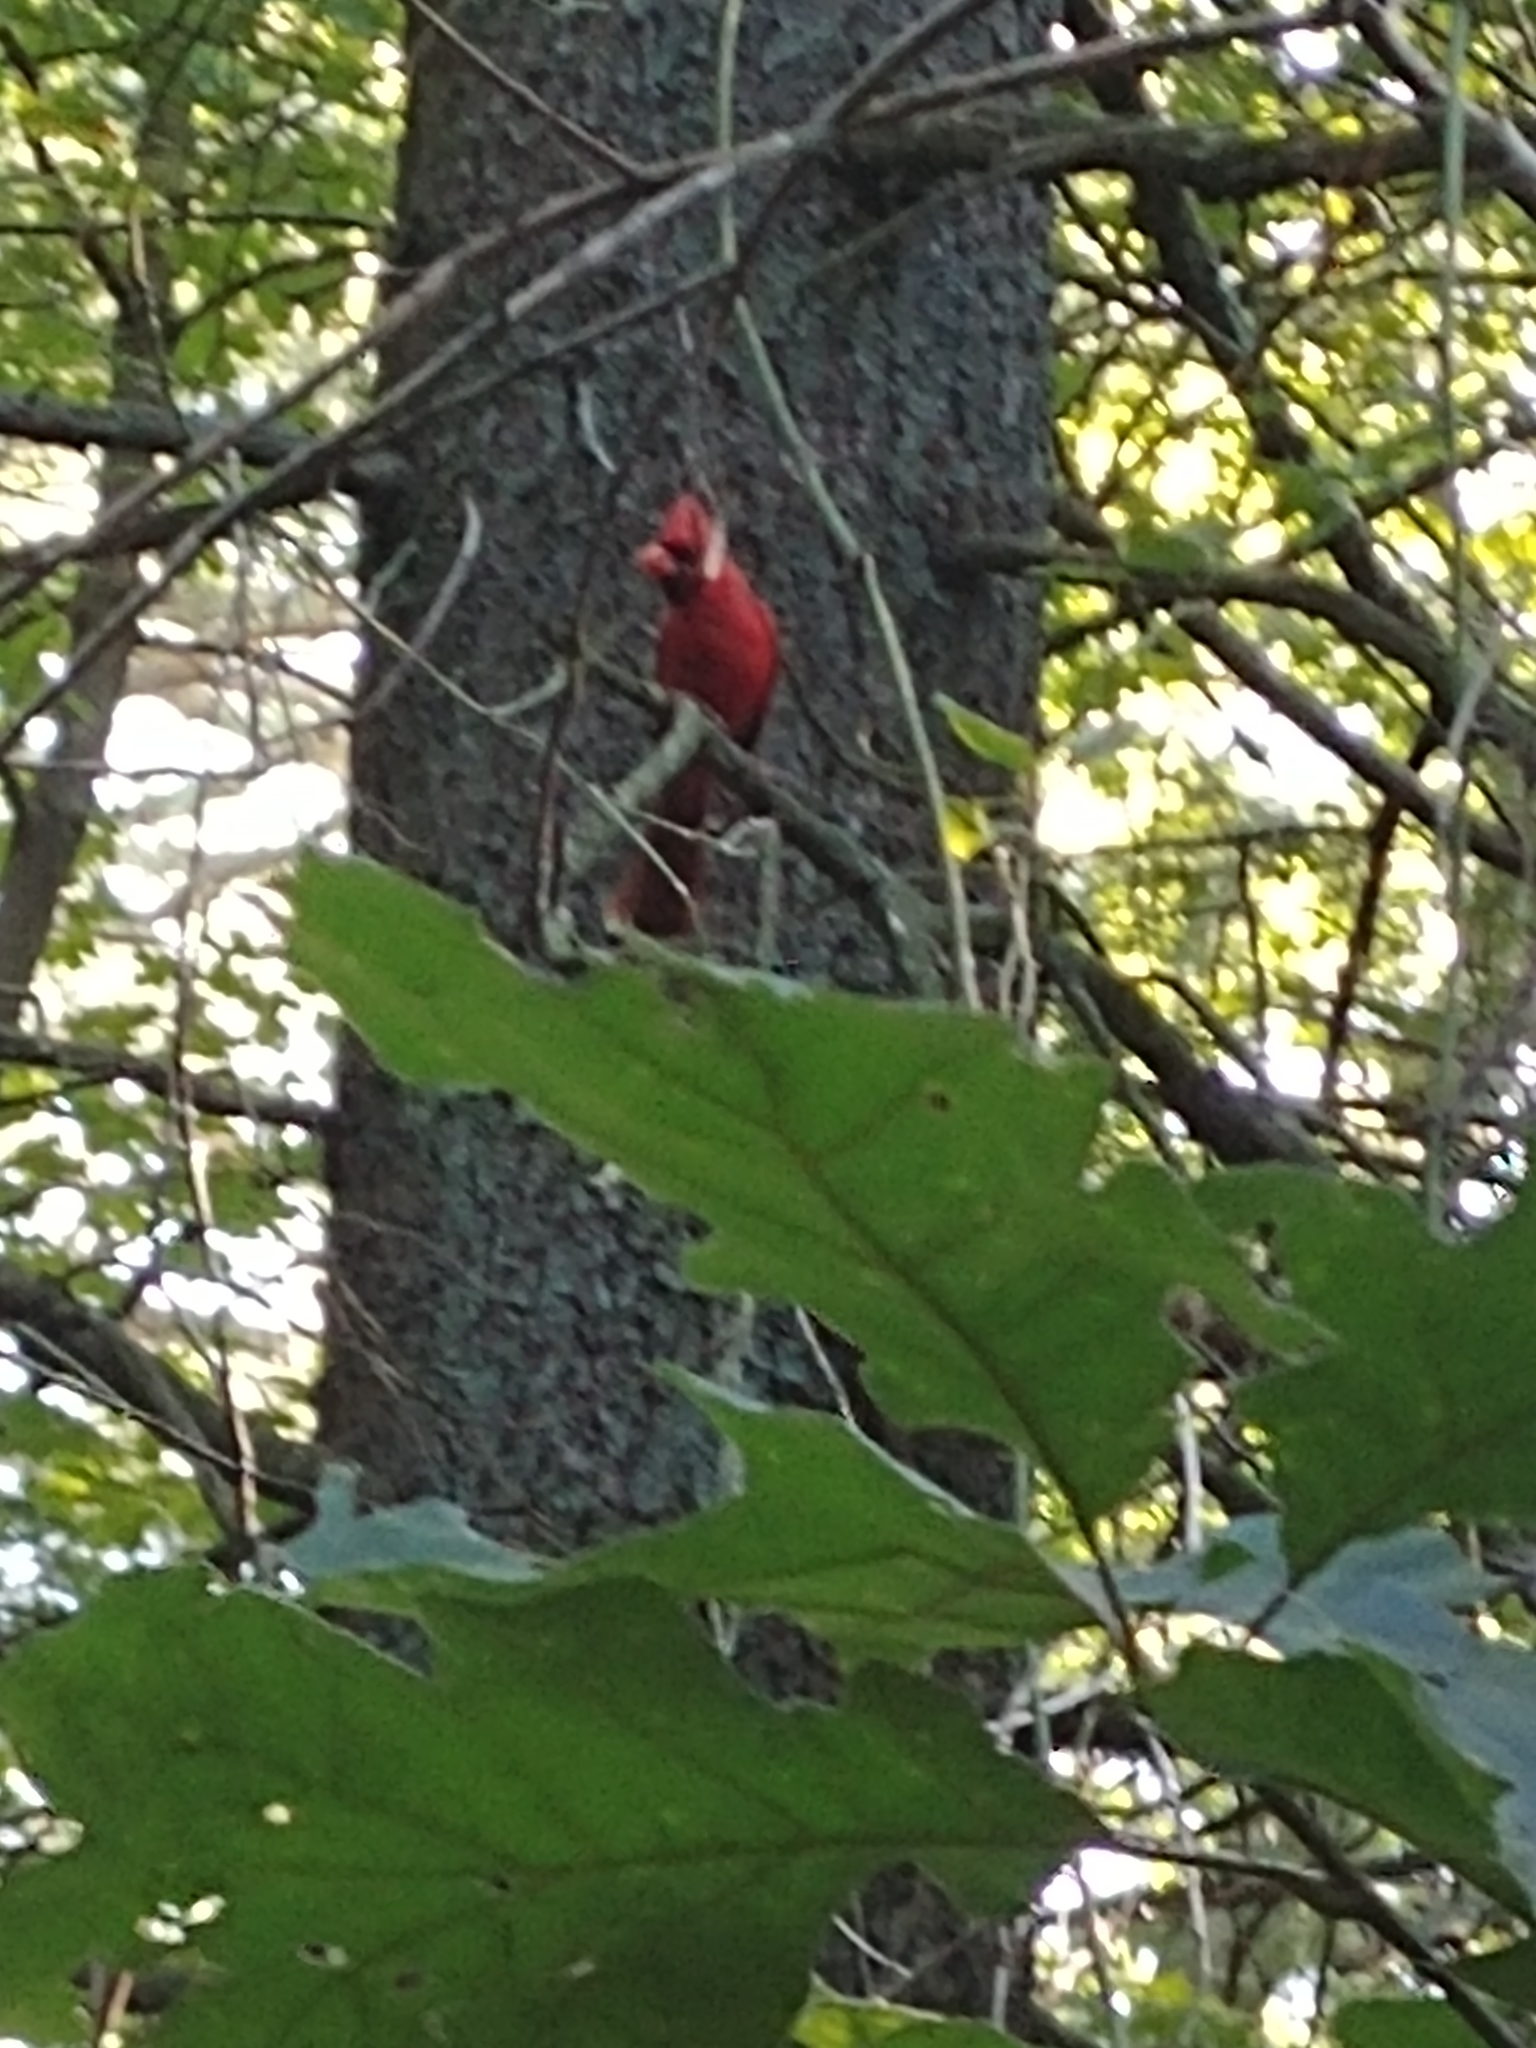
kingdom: Animalia
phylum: Chordata
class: Aves
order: Passeriformes
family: Cardinalidae
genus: Cardinalis
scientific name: Cardinalis cardinalis
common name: Northern cardinal
